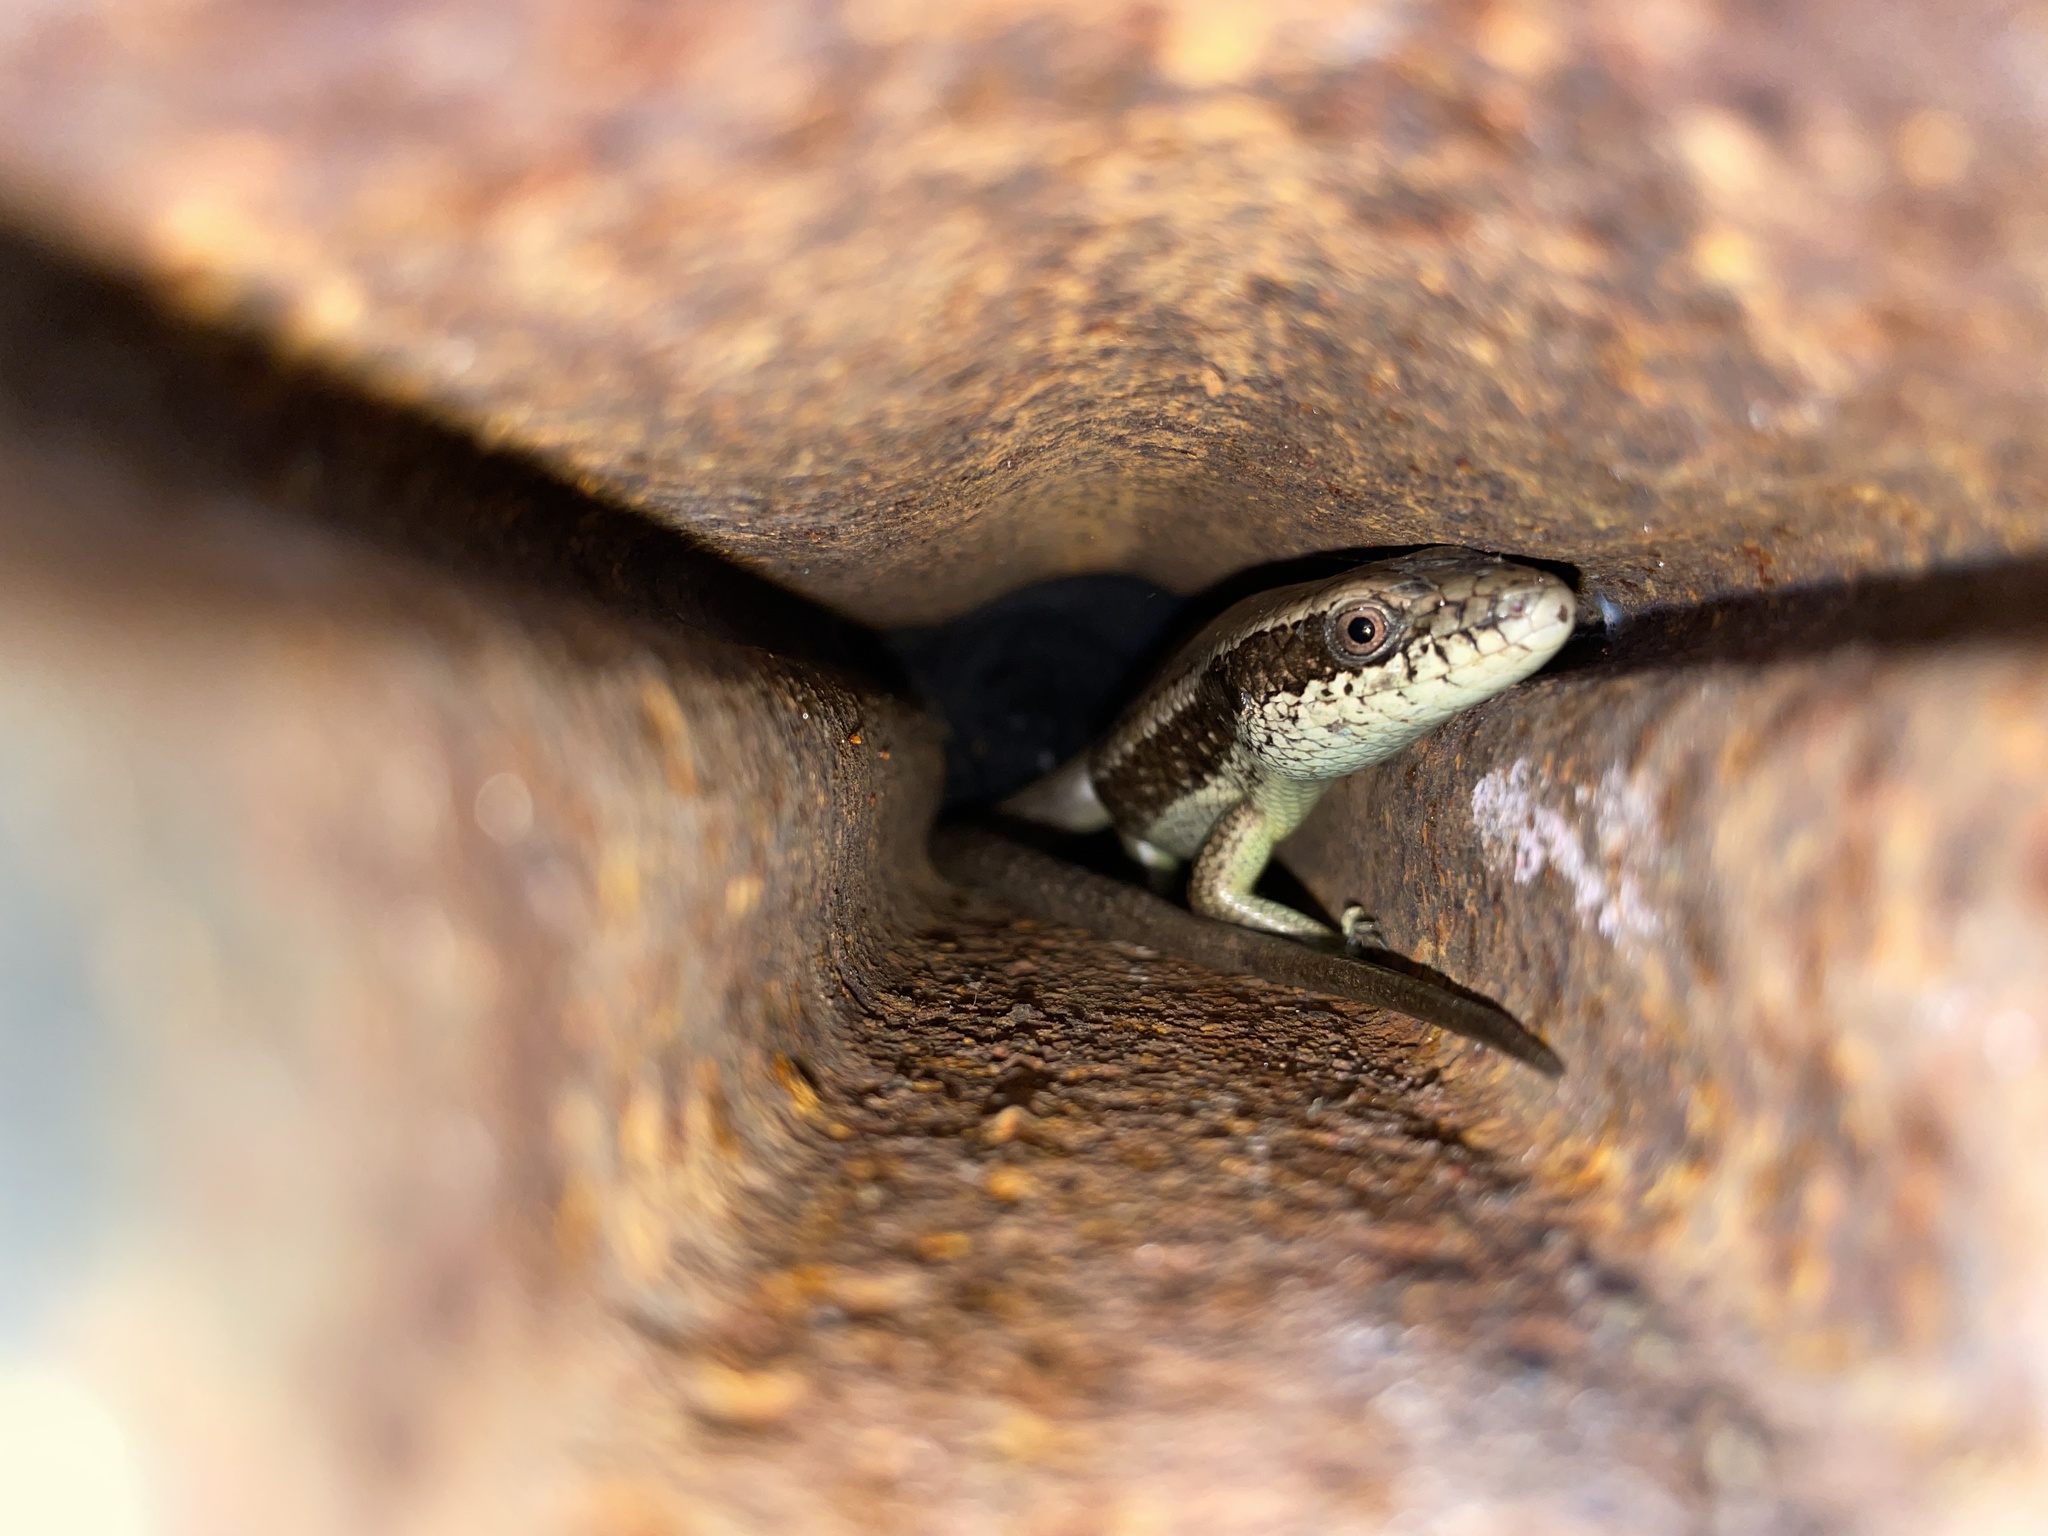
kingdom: Animalia
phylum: Chordata
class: Squamata
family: Scincidae
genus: Eutropis
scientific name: Eutropis longicaudata
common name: Long-tailed sun skink
